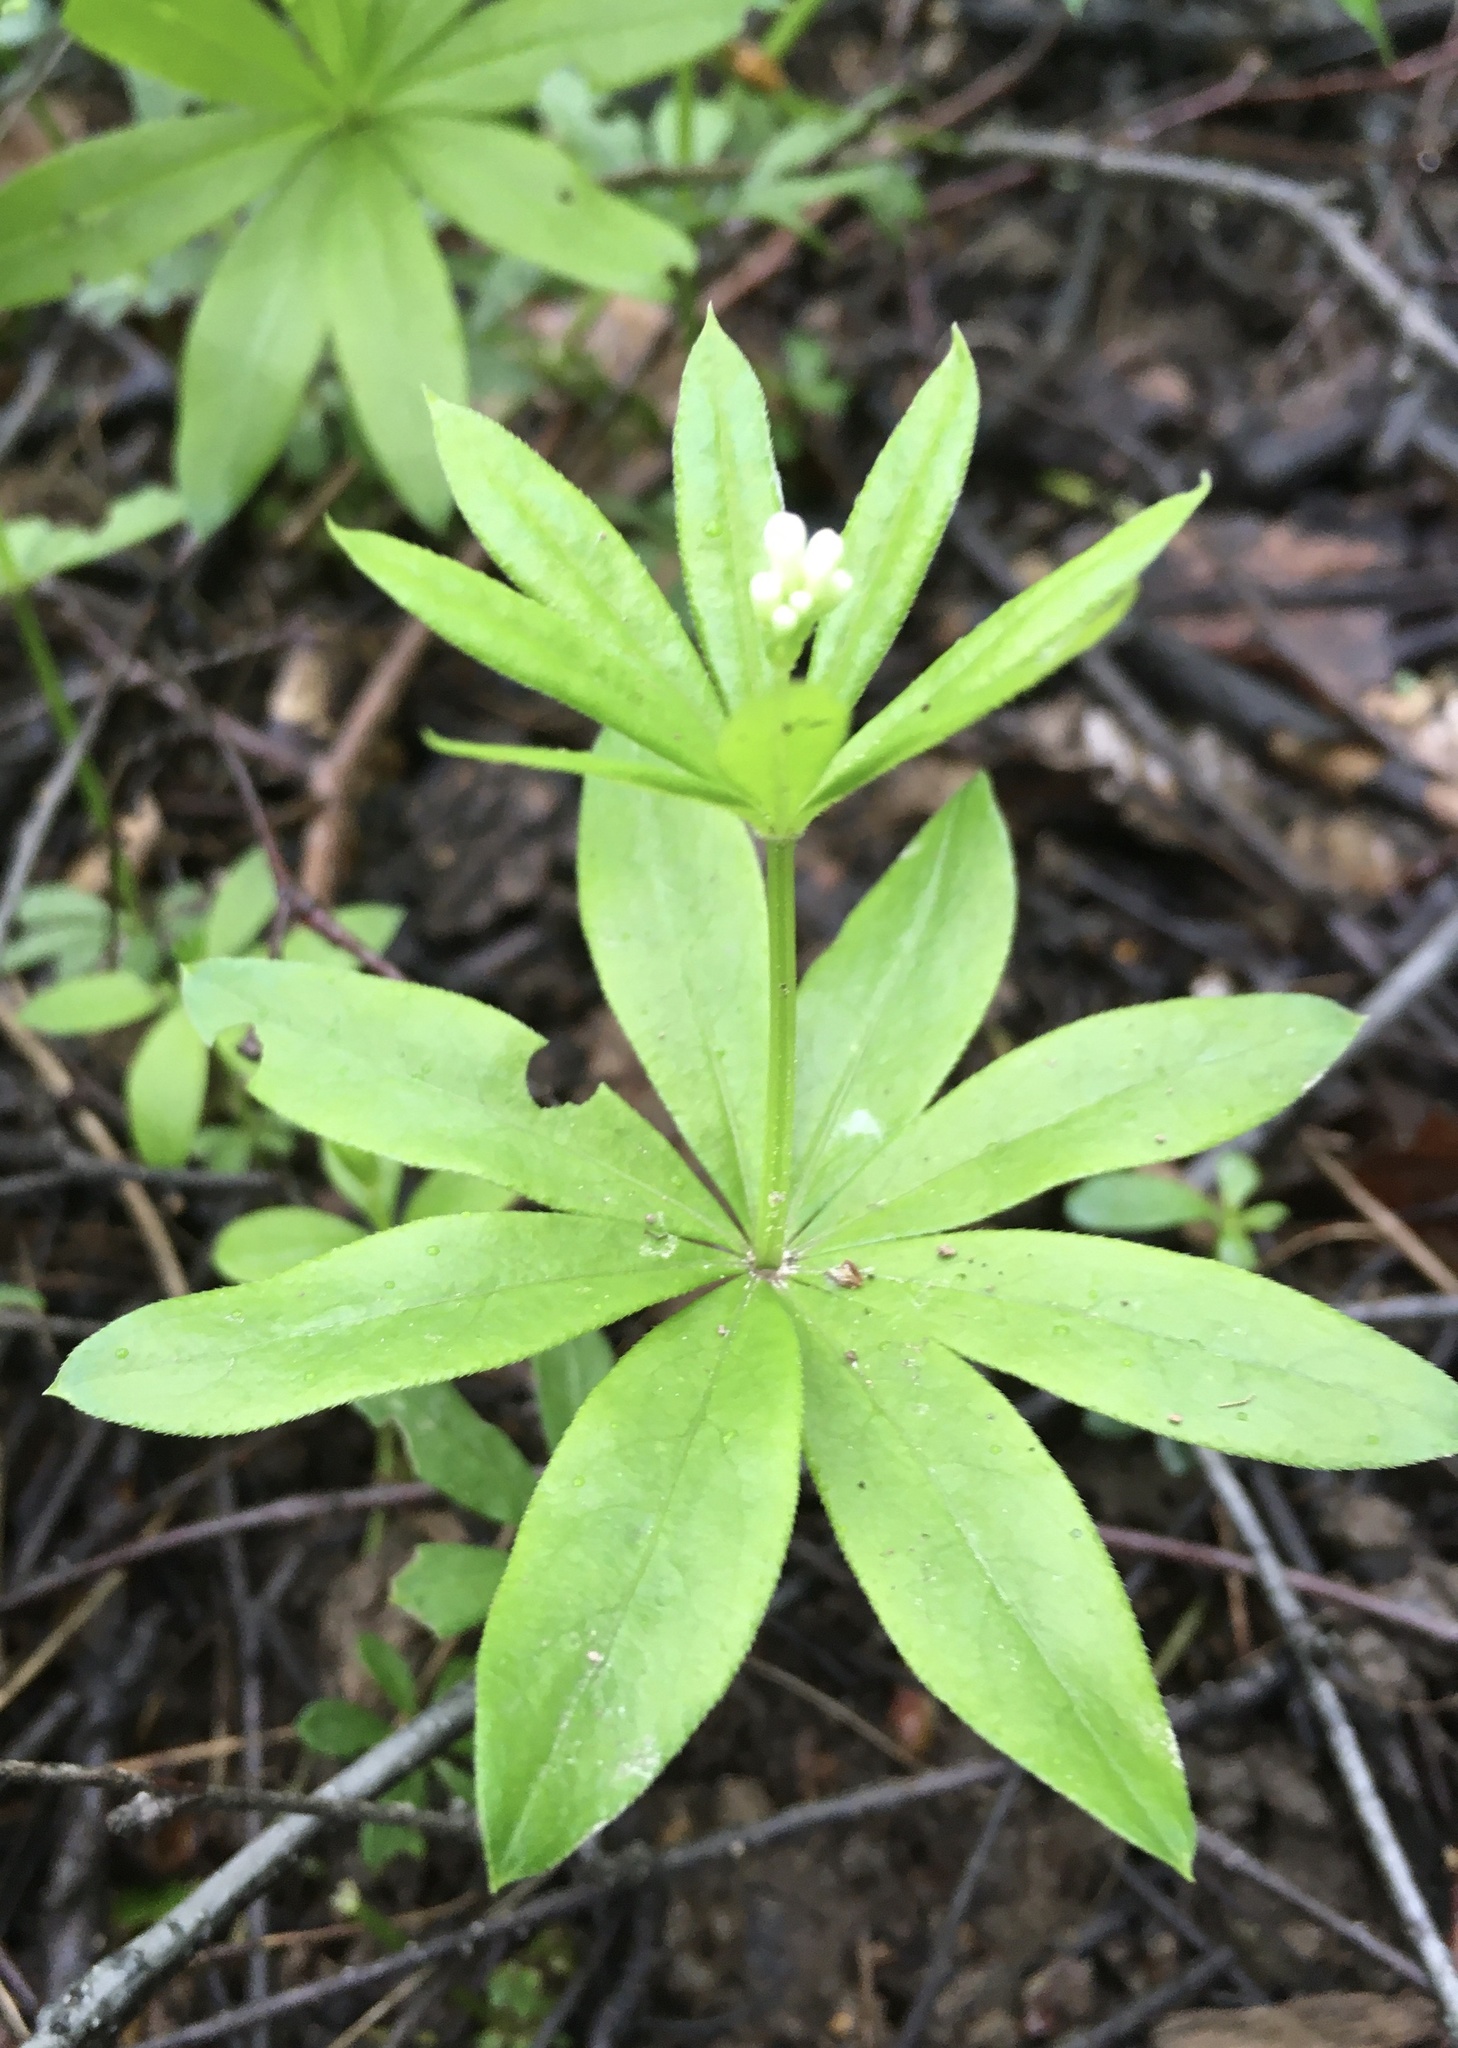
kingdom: Plantae
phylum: Tracheophyta
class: Magnoliopsida
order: Gentianales
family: Rubiaceae
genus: Galium
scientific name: Galium odoratum
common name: Sweet woodruff
